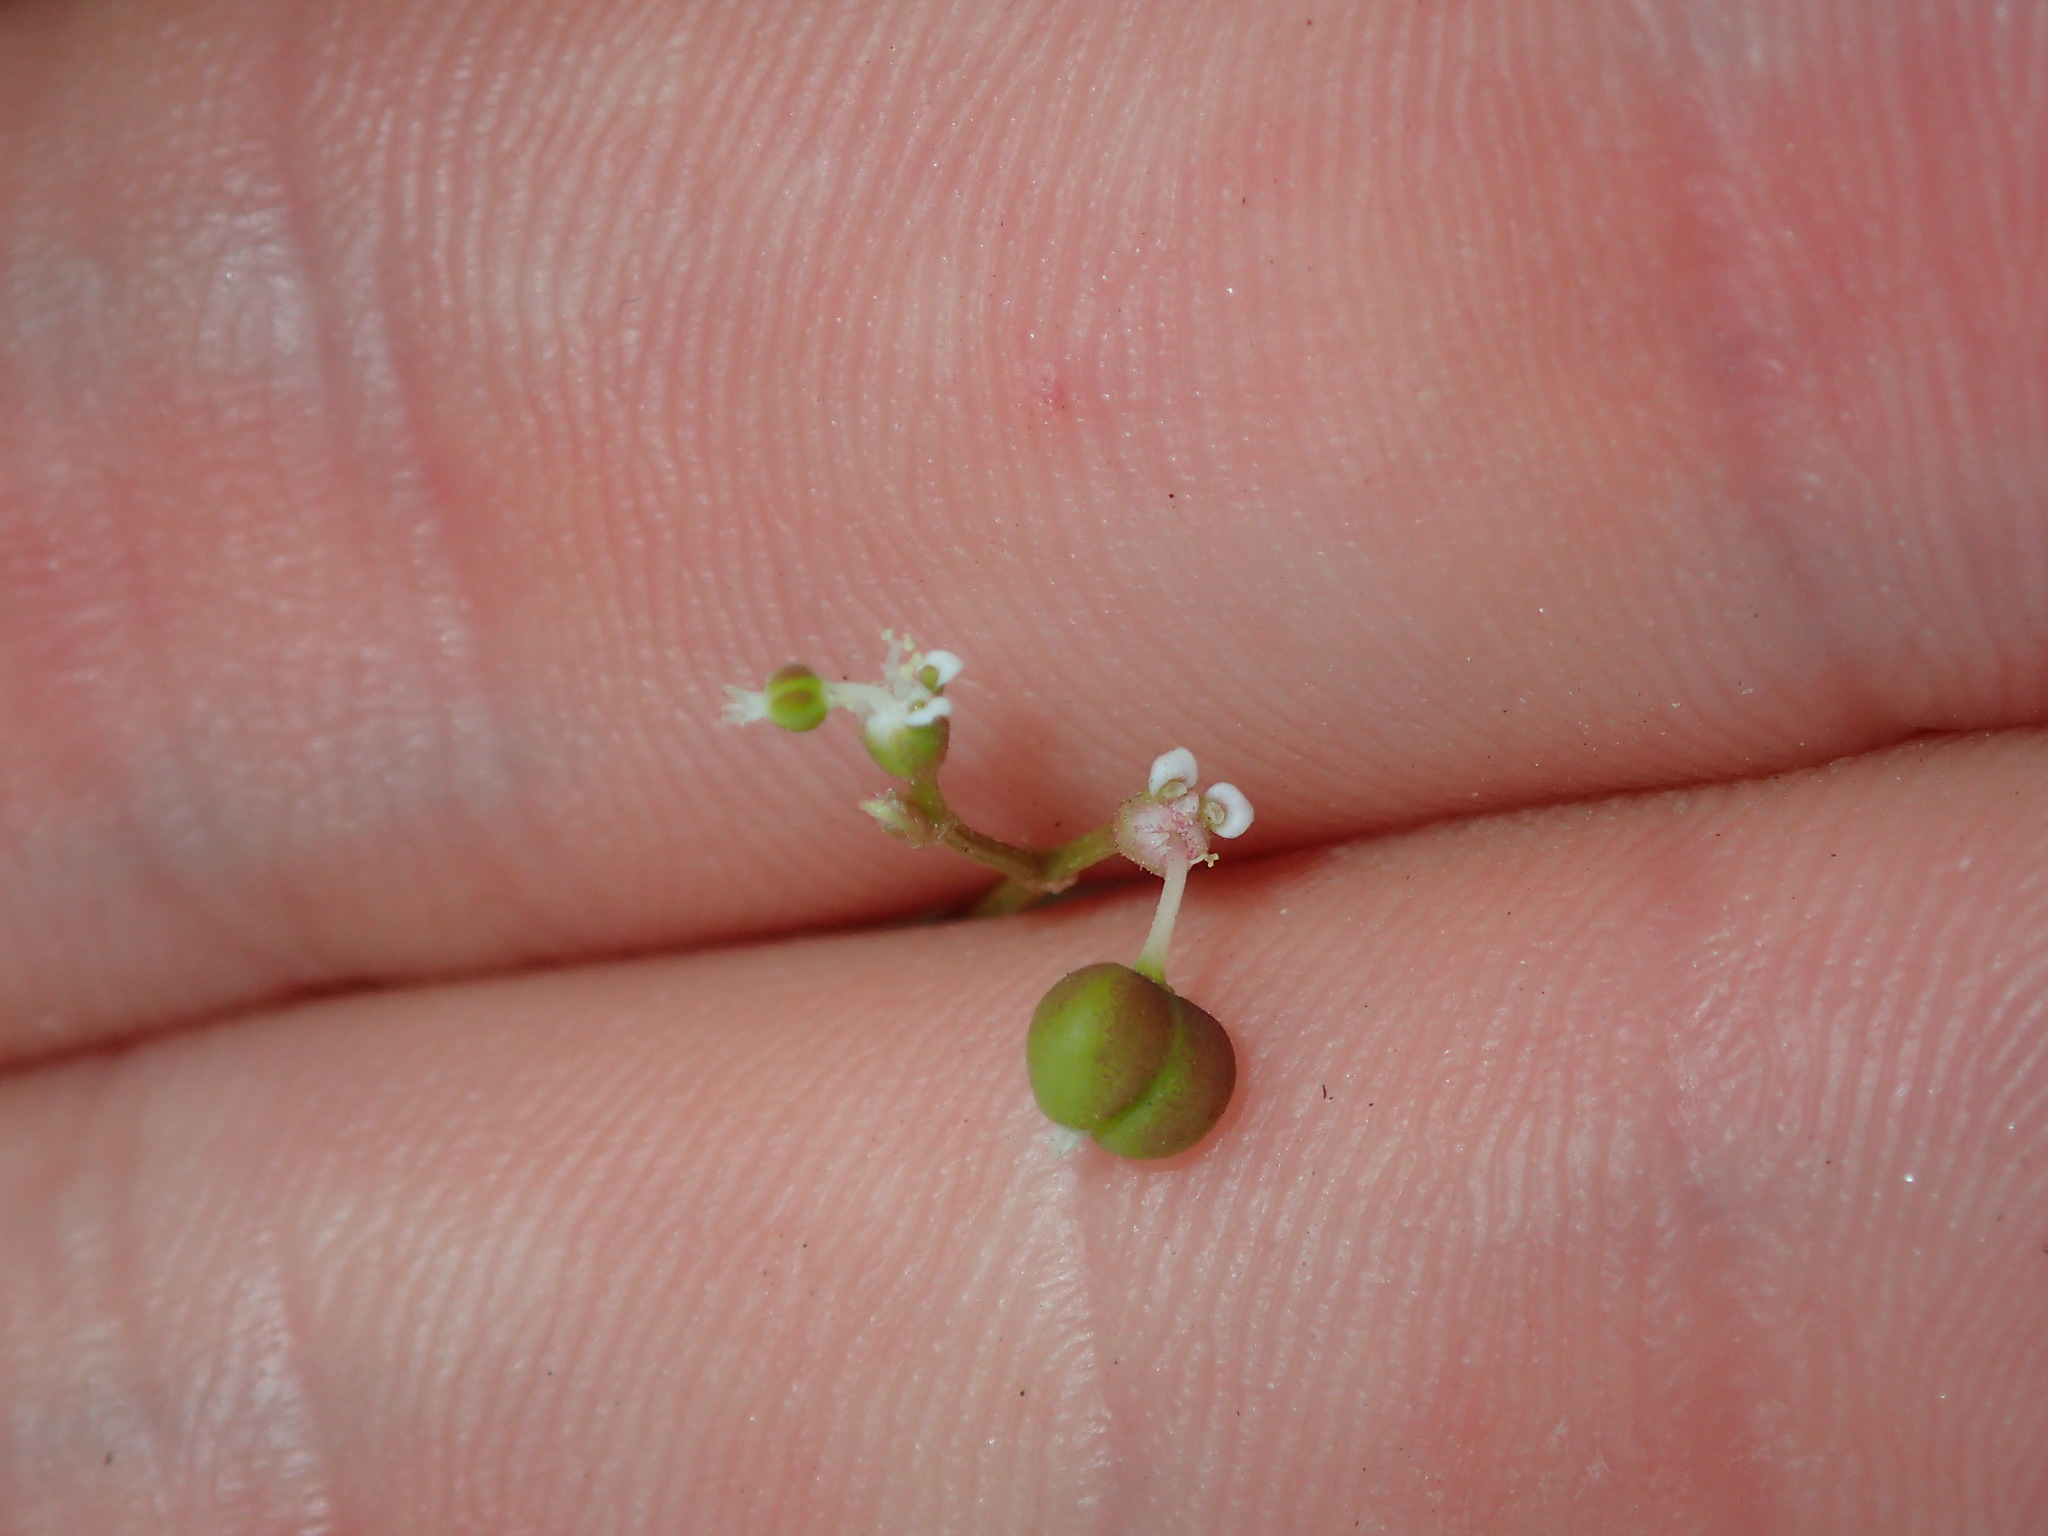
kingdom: Plantae
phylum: Tracheophyta
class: Magnoliopsida
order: Malpighiales
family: Euphorbiaceae
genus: Euphorbia
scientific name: Euphorbia graminea
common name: Grassleaf spurge
